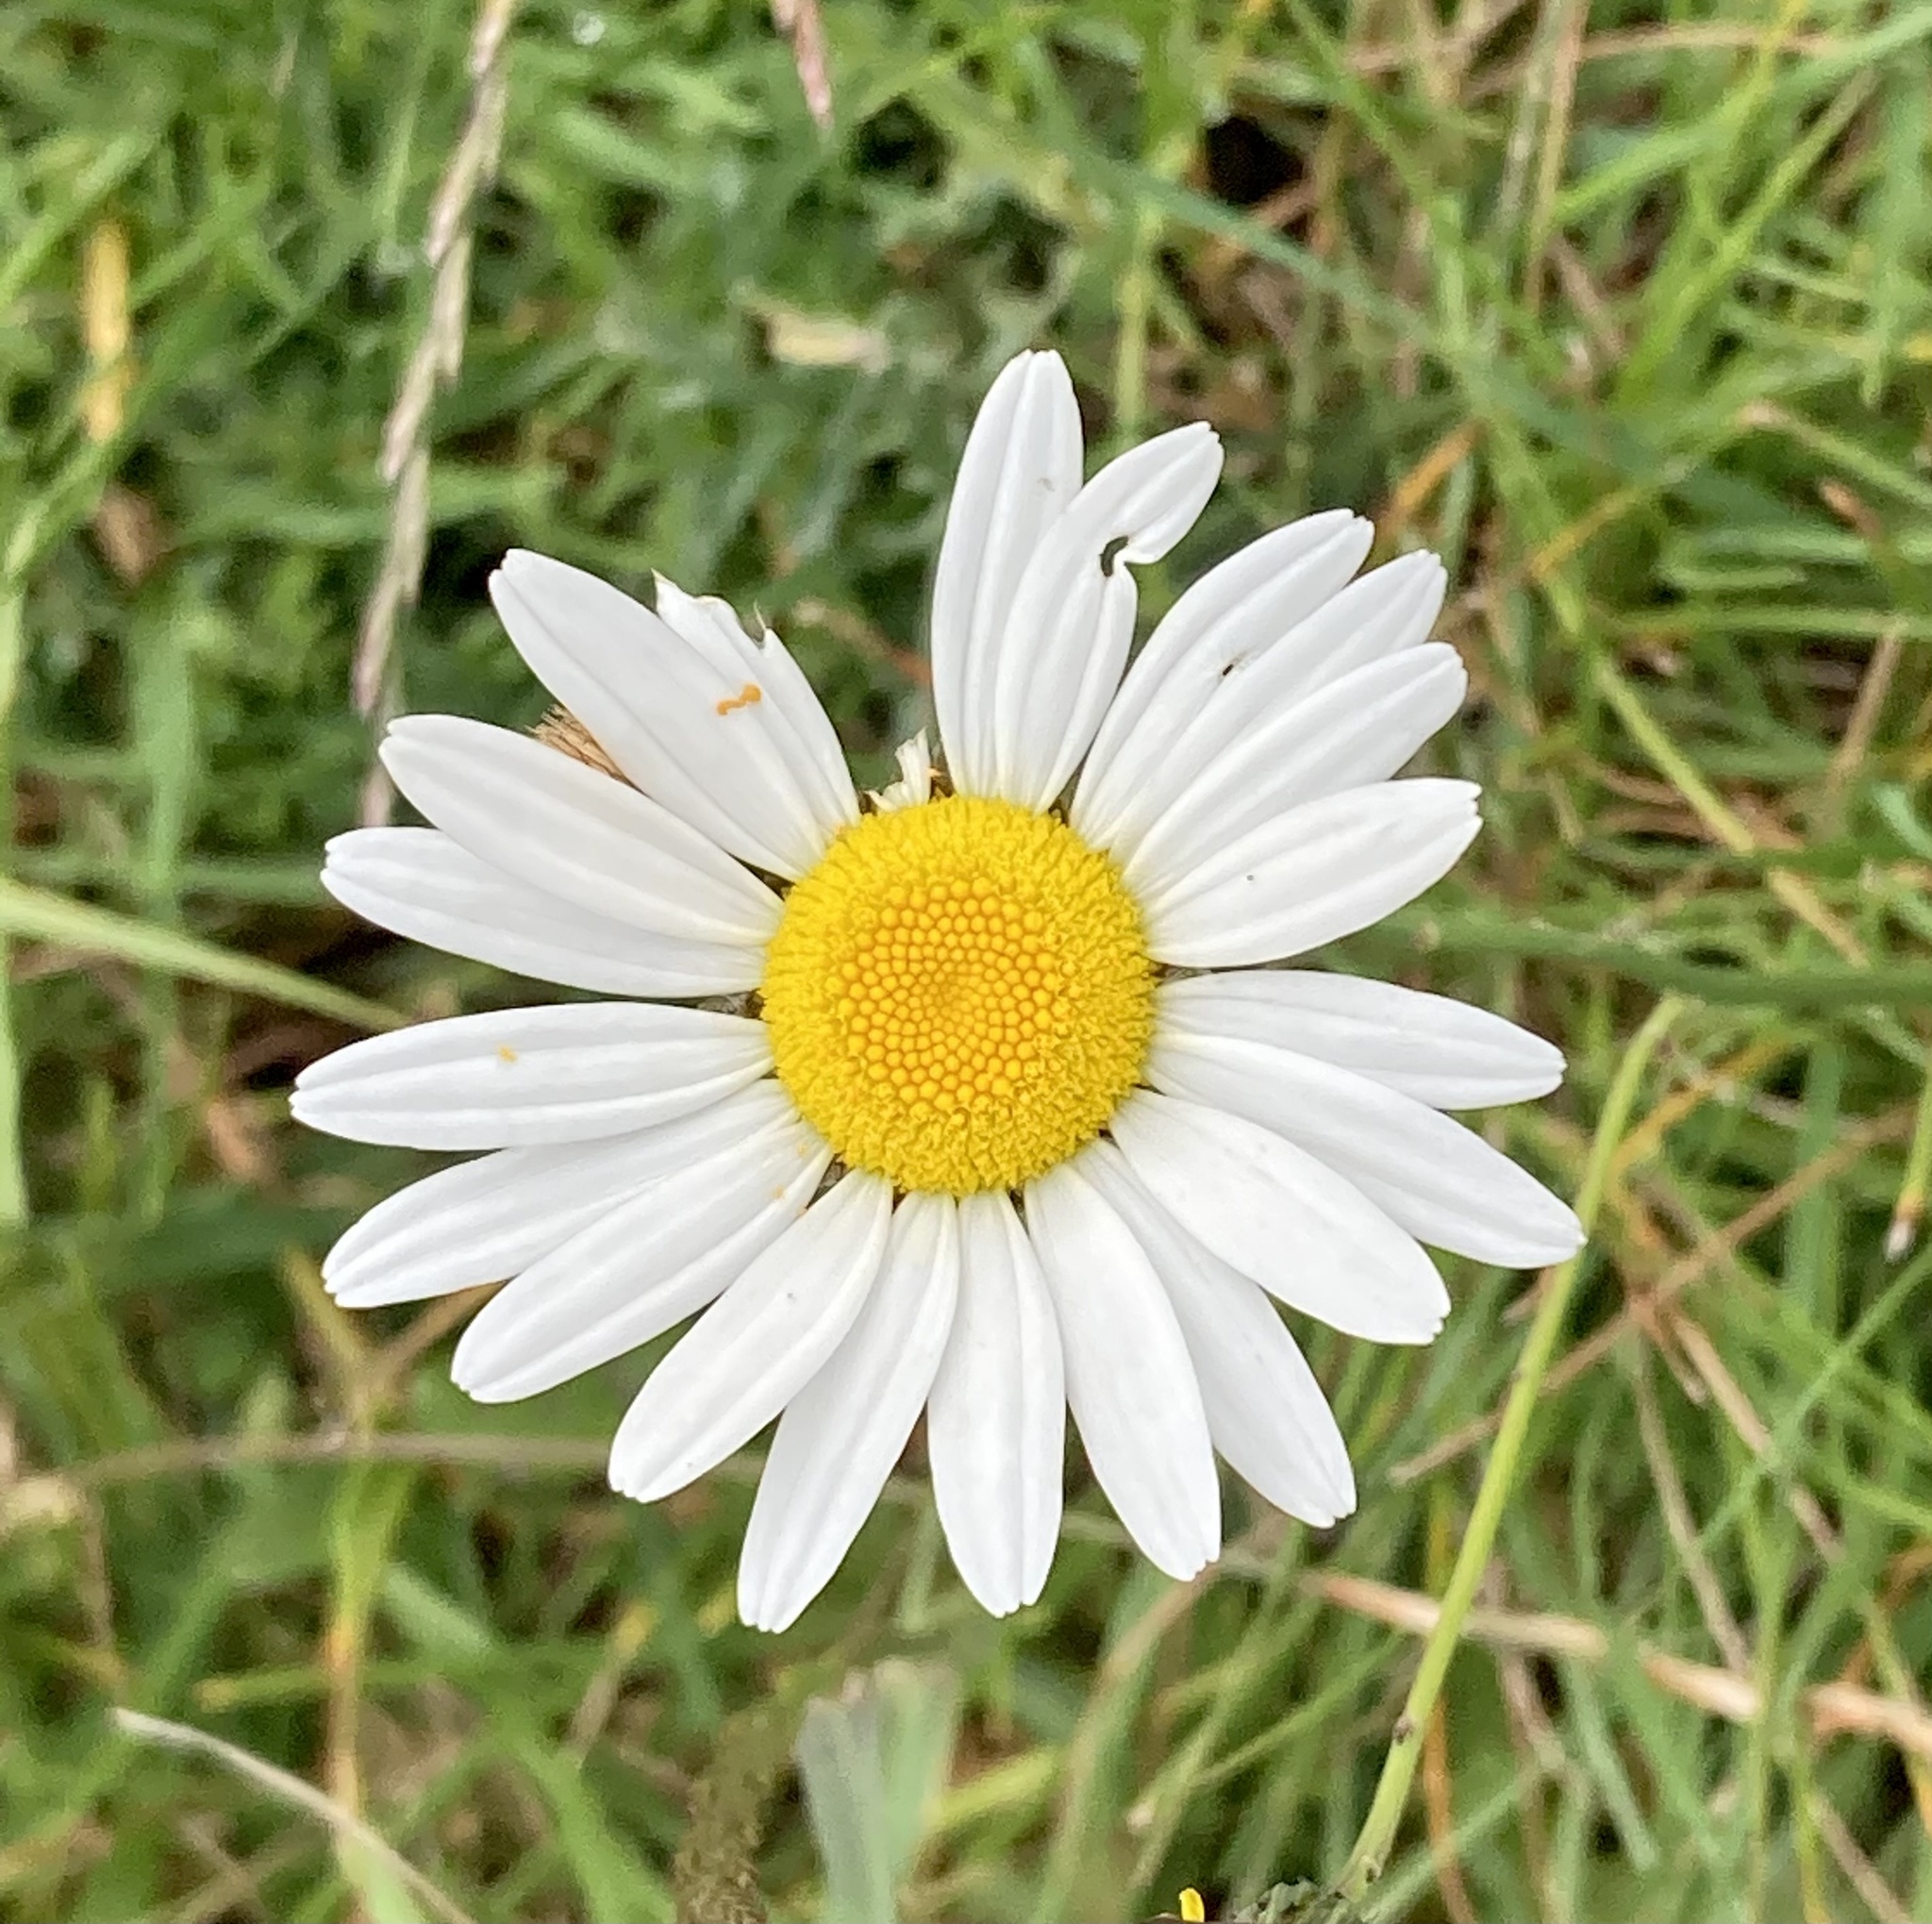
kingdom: Plantae
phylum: Tracheophyta
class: Magnoliopsida
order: Asterales
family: Asteraceae
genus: Leucanthemum
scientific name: Leucanthemum vulgare
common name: Oxeye daisy
